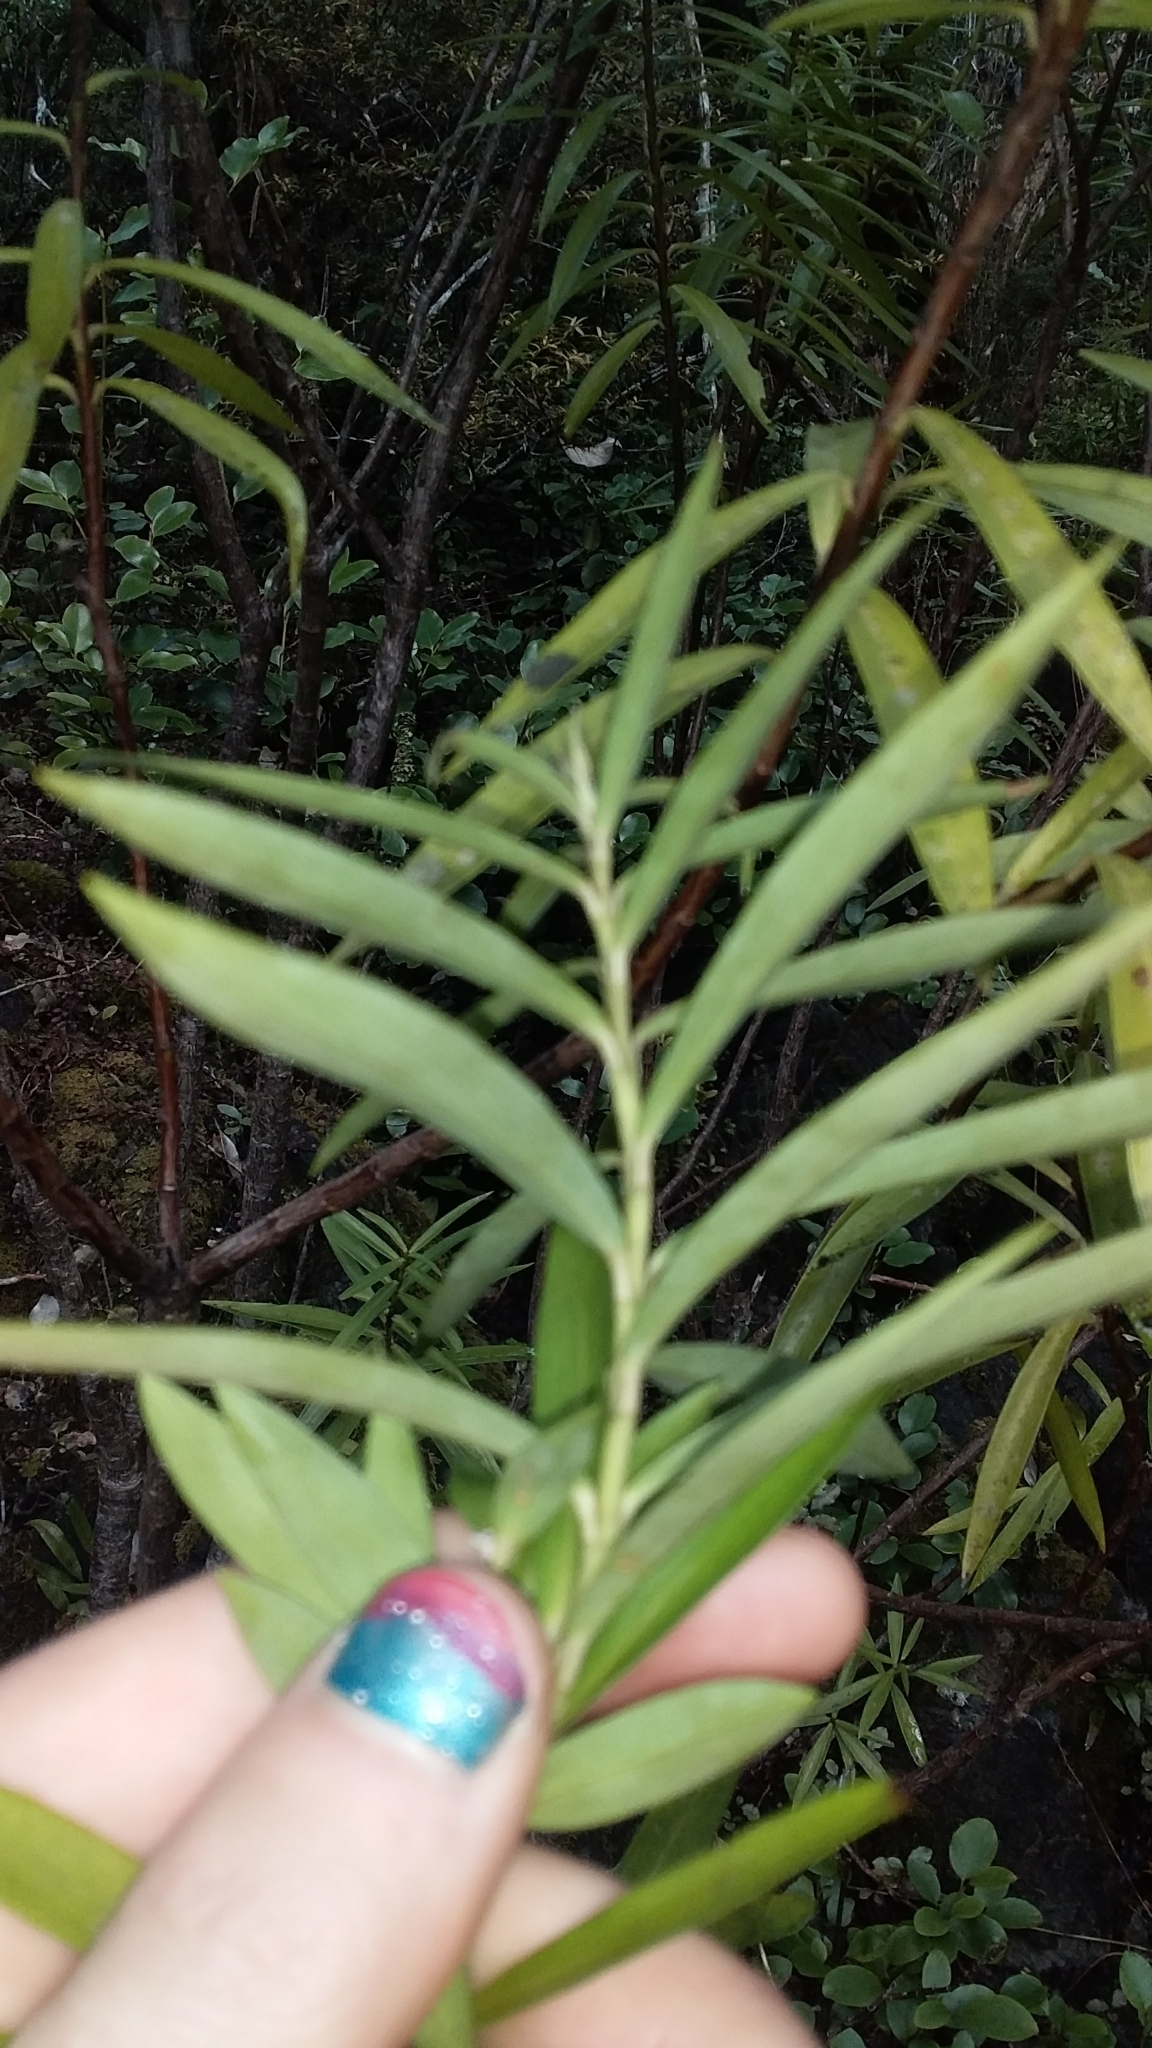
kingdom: Plantae
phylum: Tracheophyta
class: Magnoliopsida
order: Malvales
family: Thymelaeaceae
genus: Pimelea
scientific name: Pimelea longifolia
